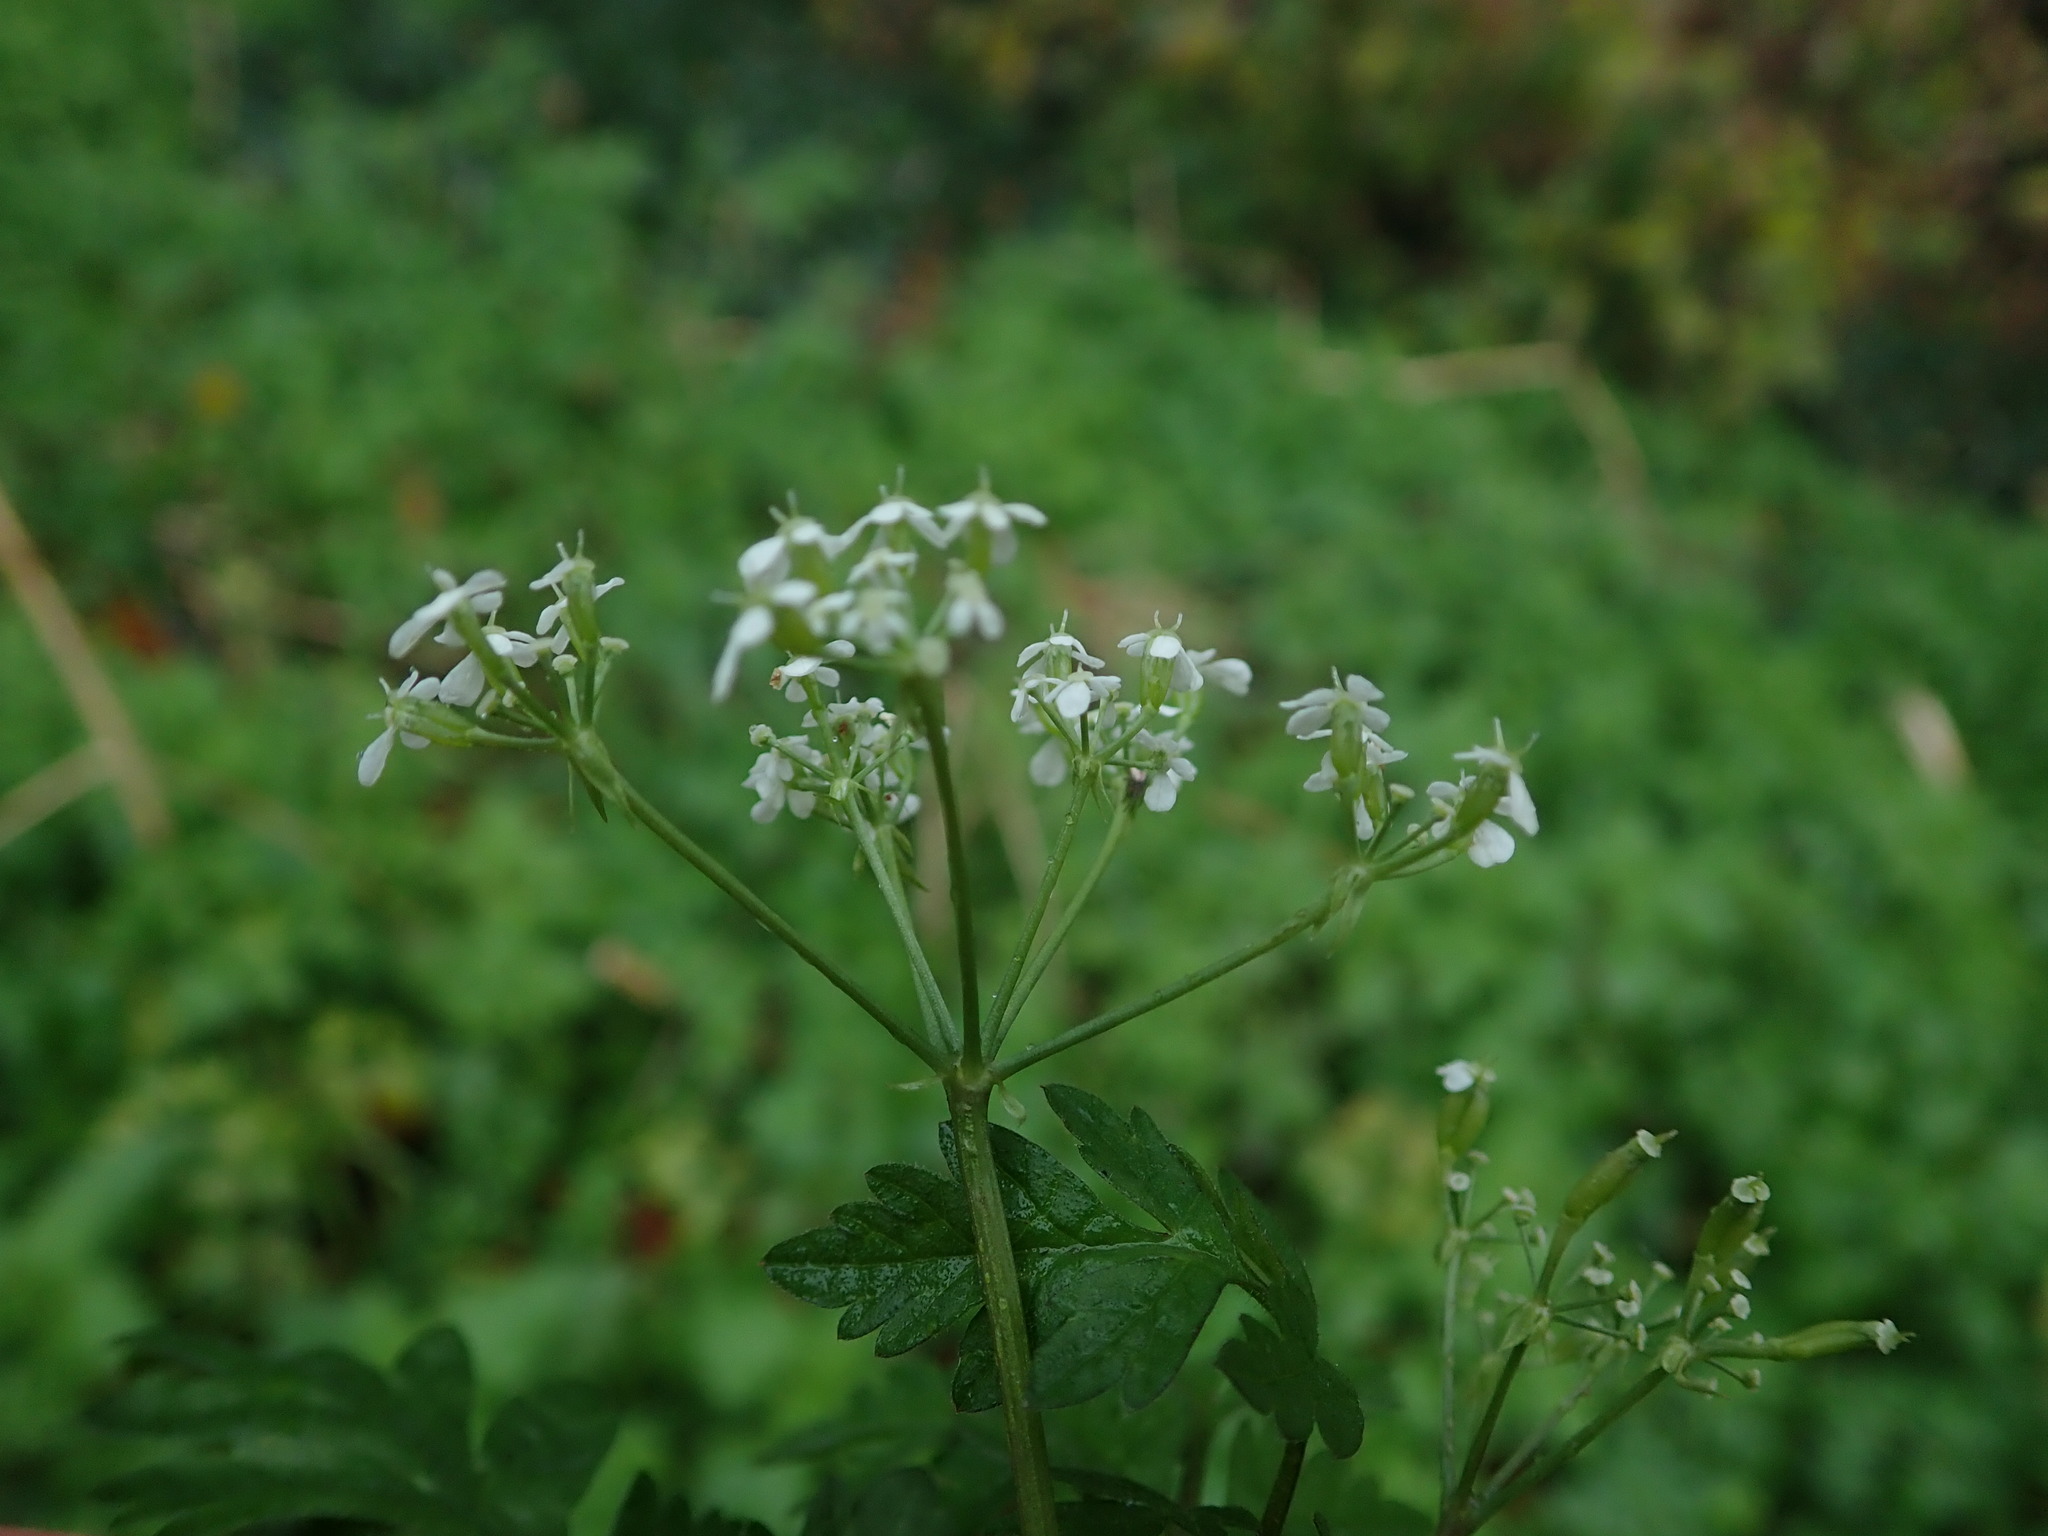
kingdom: Plantae
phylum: Tracheophyta
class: Magnoliopsida
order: Apiales
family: Apiaceae
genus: Anthriscus
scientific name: Anthriscus sylvestris
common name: Cow parsley
